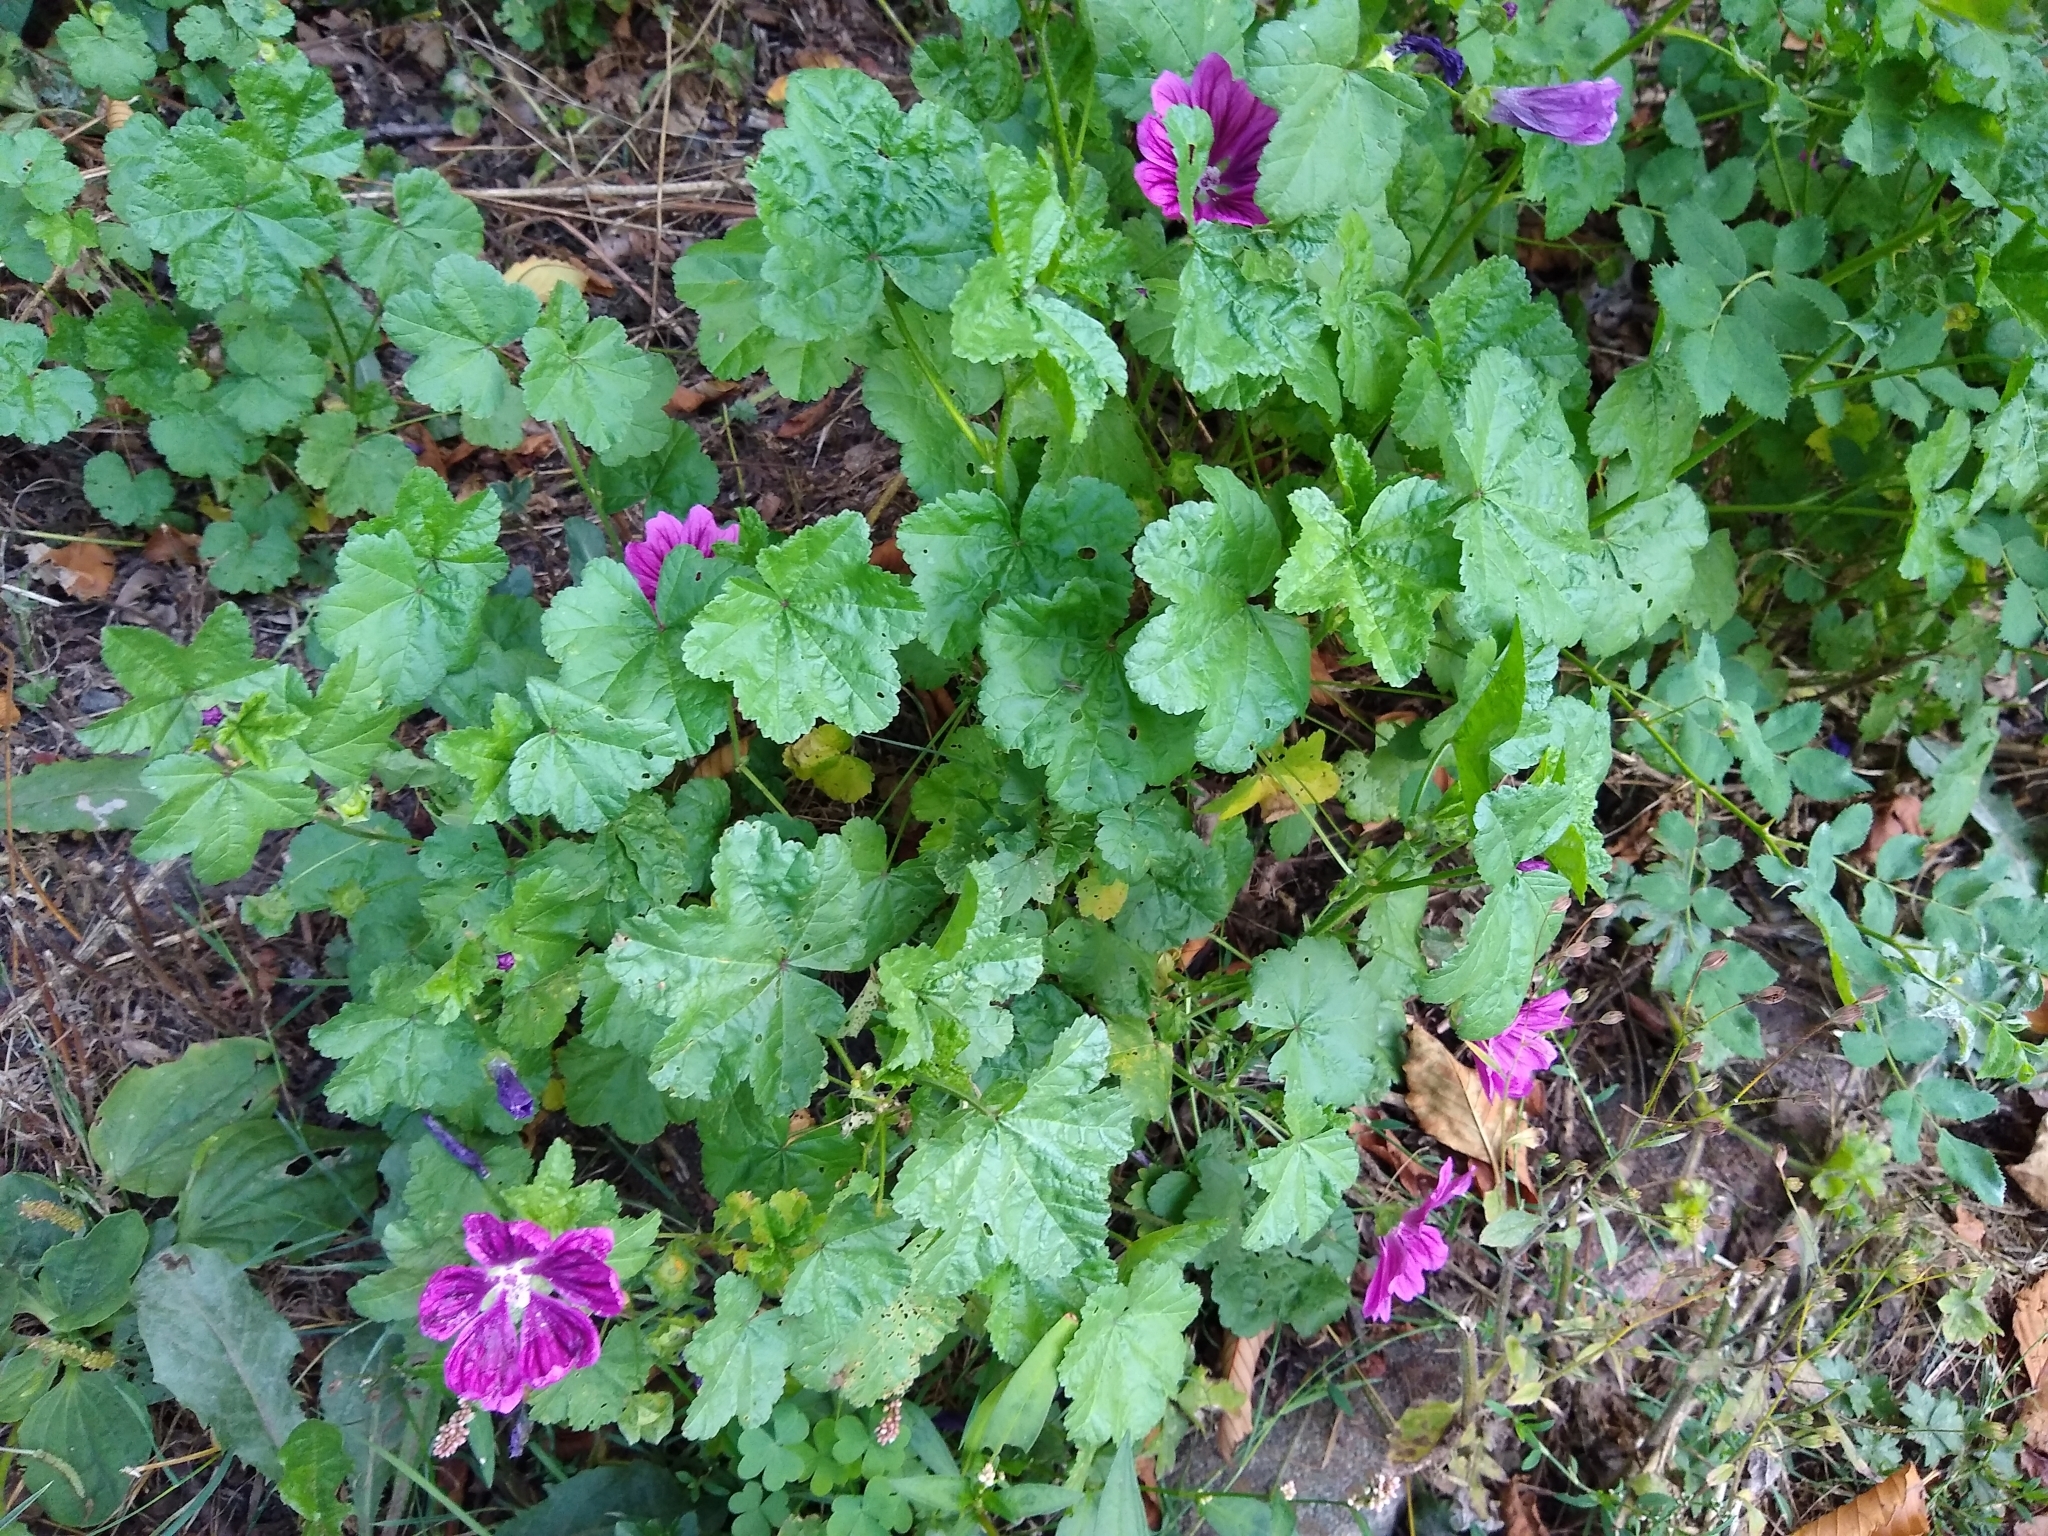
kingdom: Plantae
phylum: Tracheophyta
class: Magnoliopsida
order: Malvales
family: Malvaceae
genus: Malva
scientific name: Malva sylvestris
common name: Common mallow
